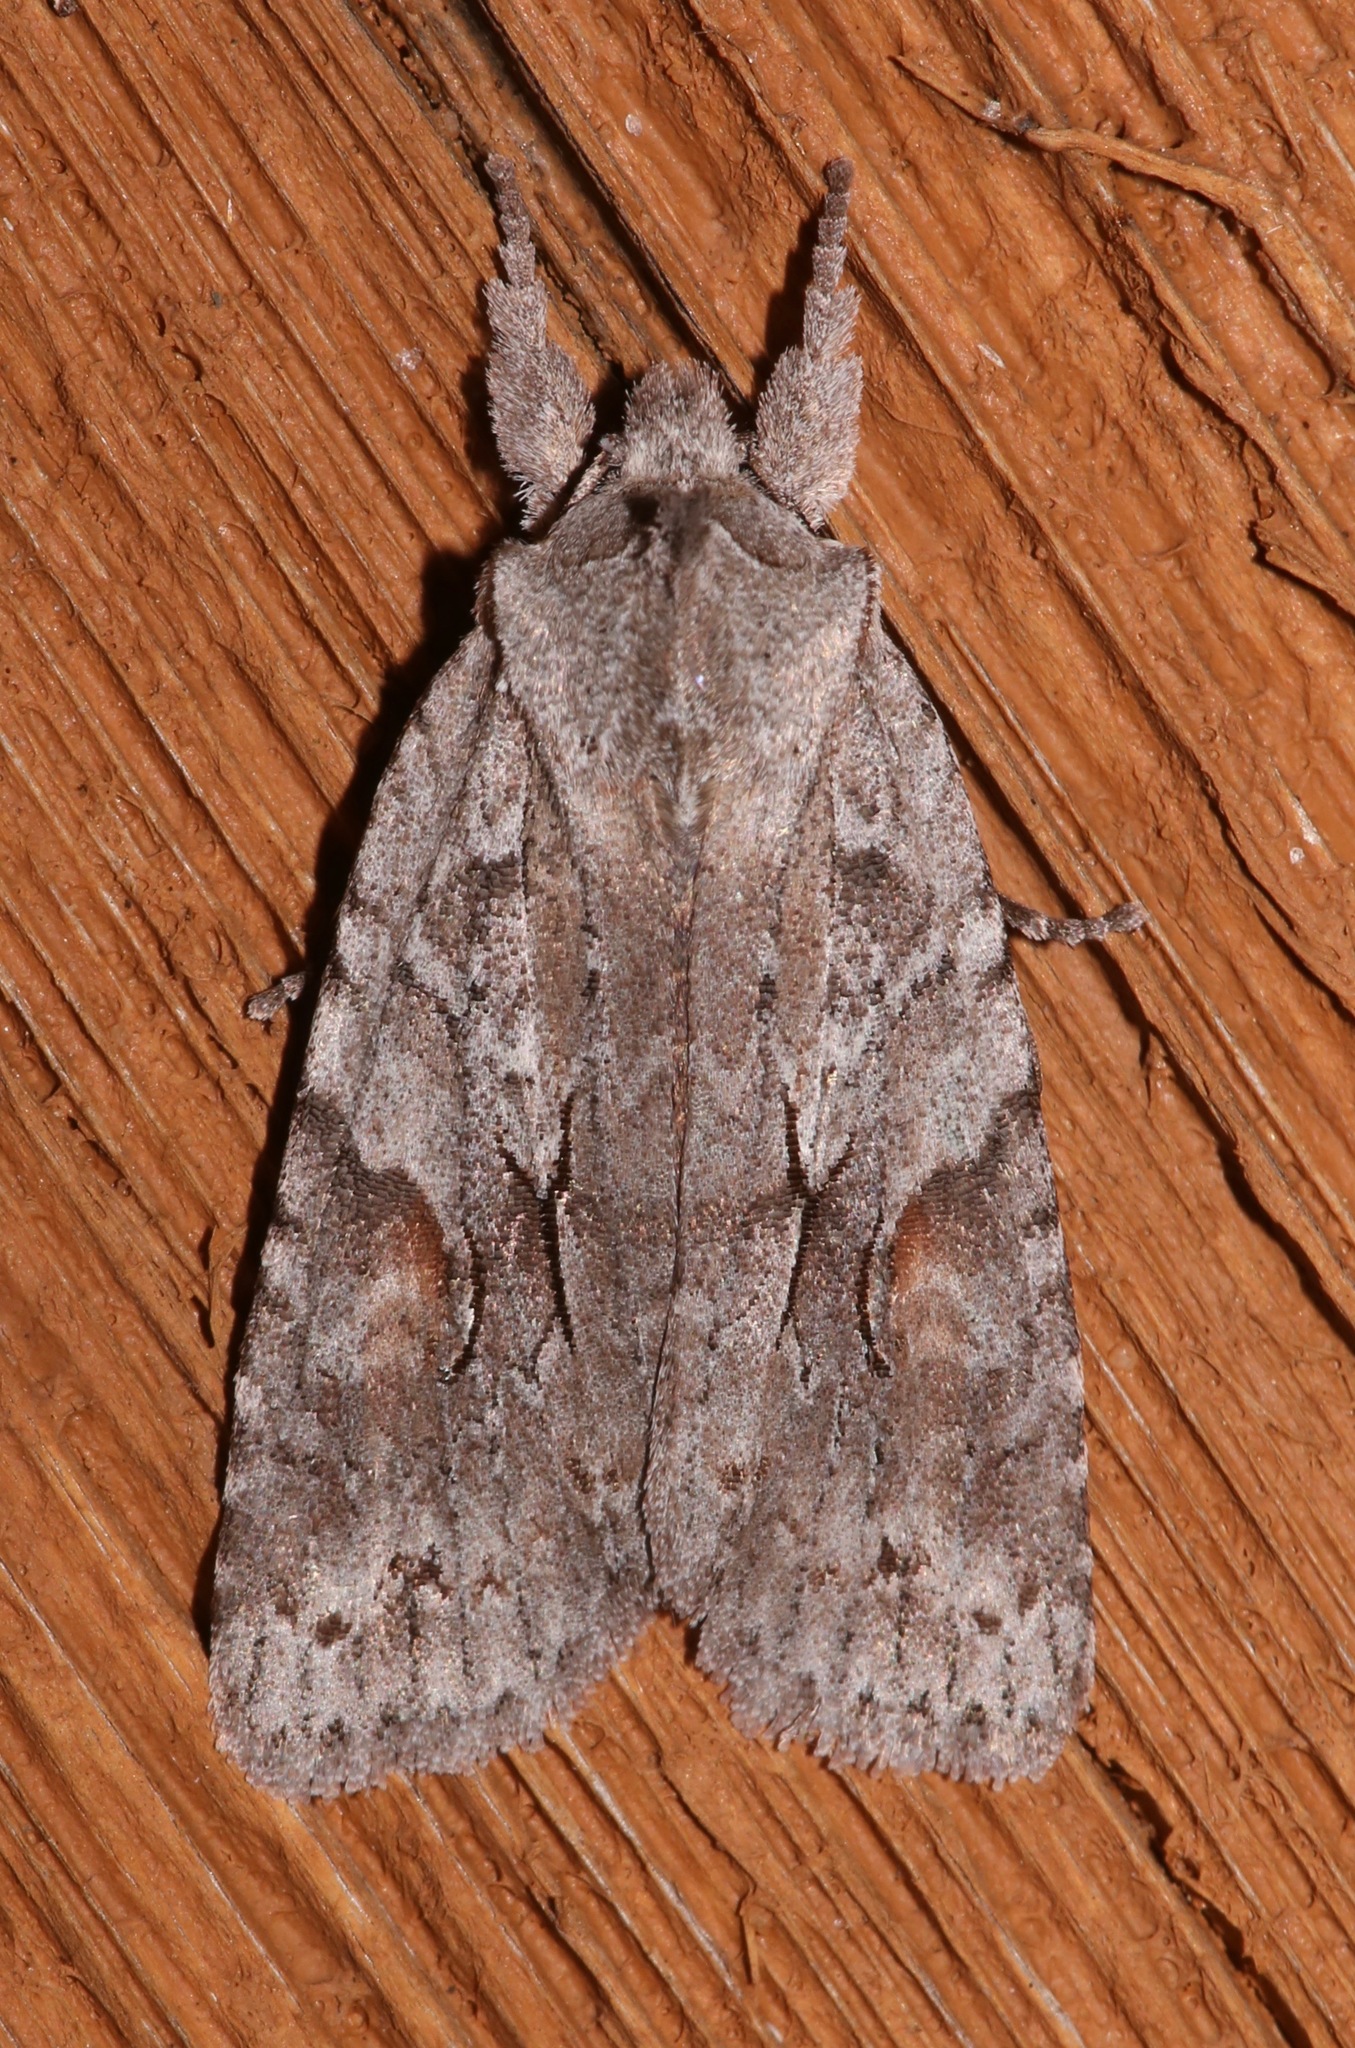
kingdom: Animalia
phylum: Arthropoda
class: Insecta
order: Lepidoptera
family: Noctuidae
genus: Lithophane
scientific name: Lithophane abita
